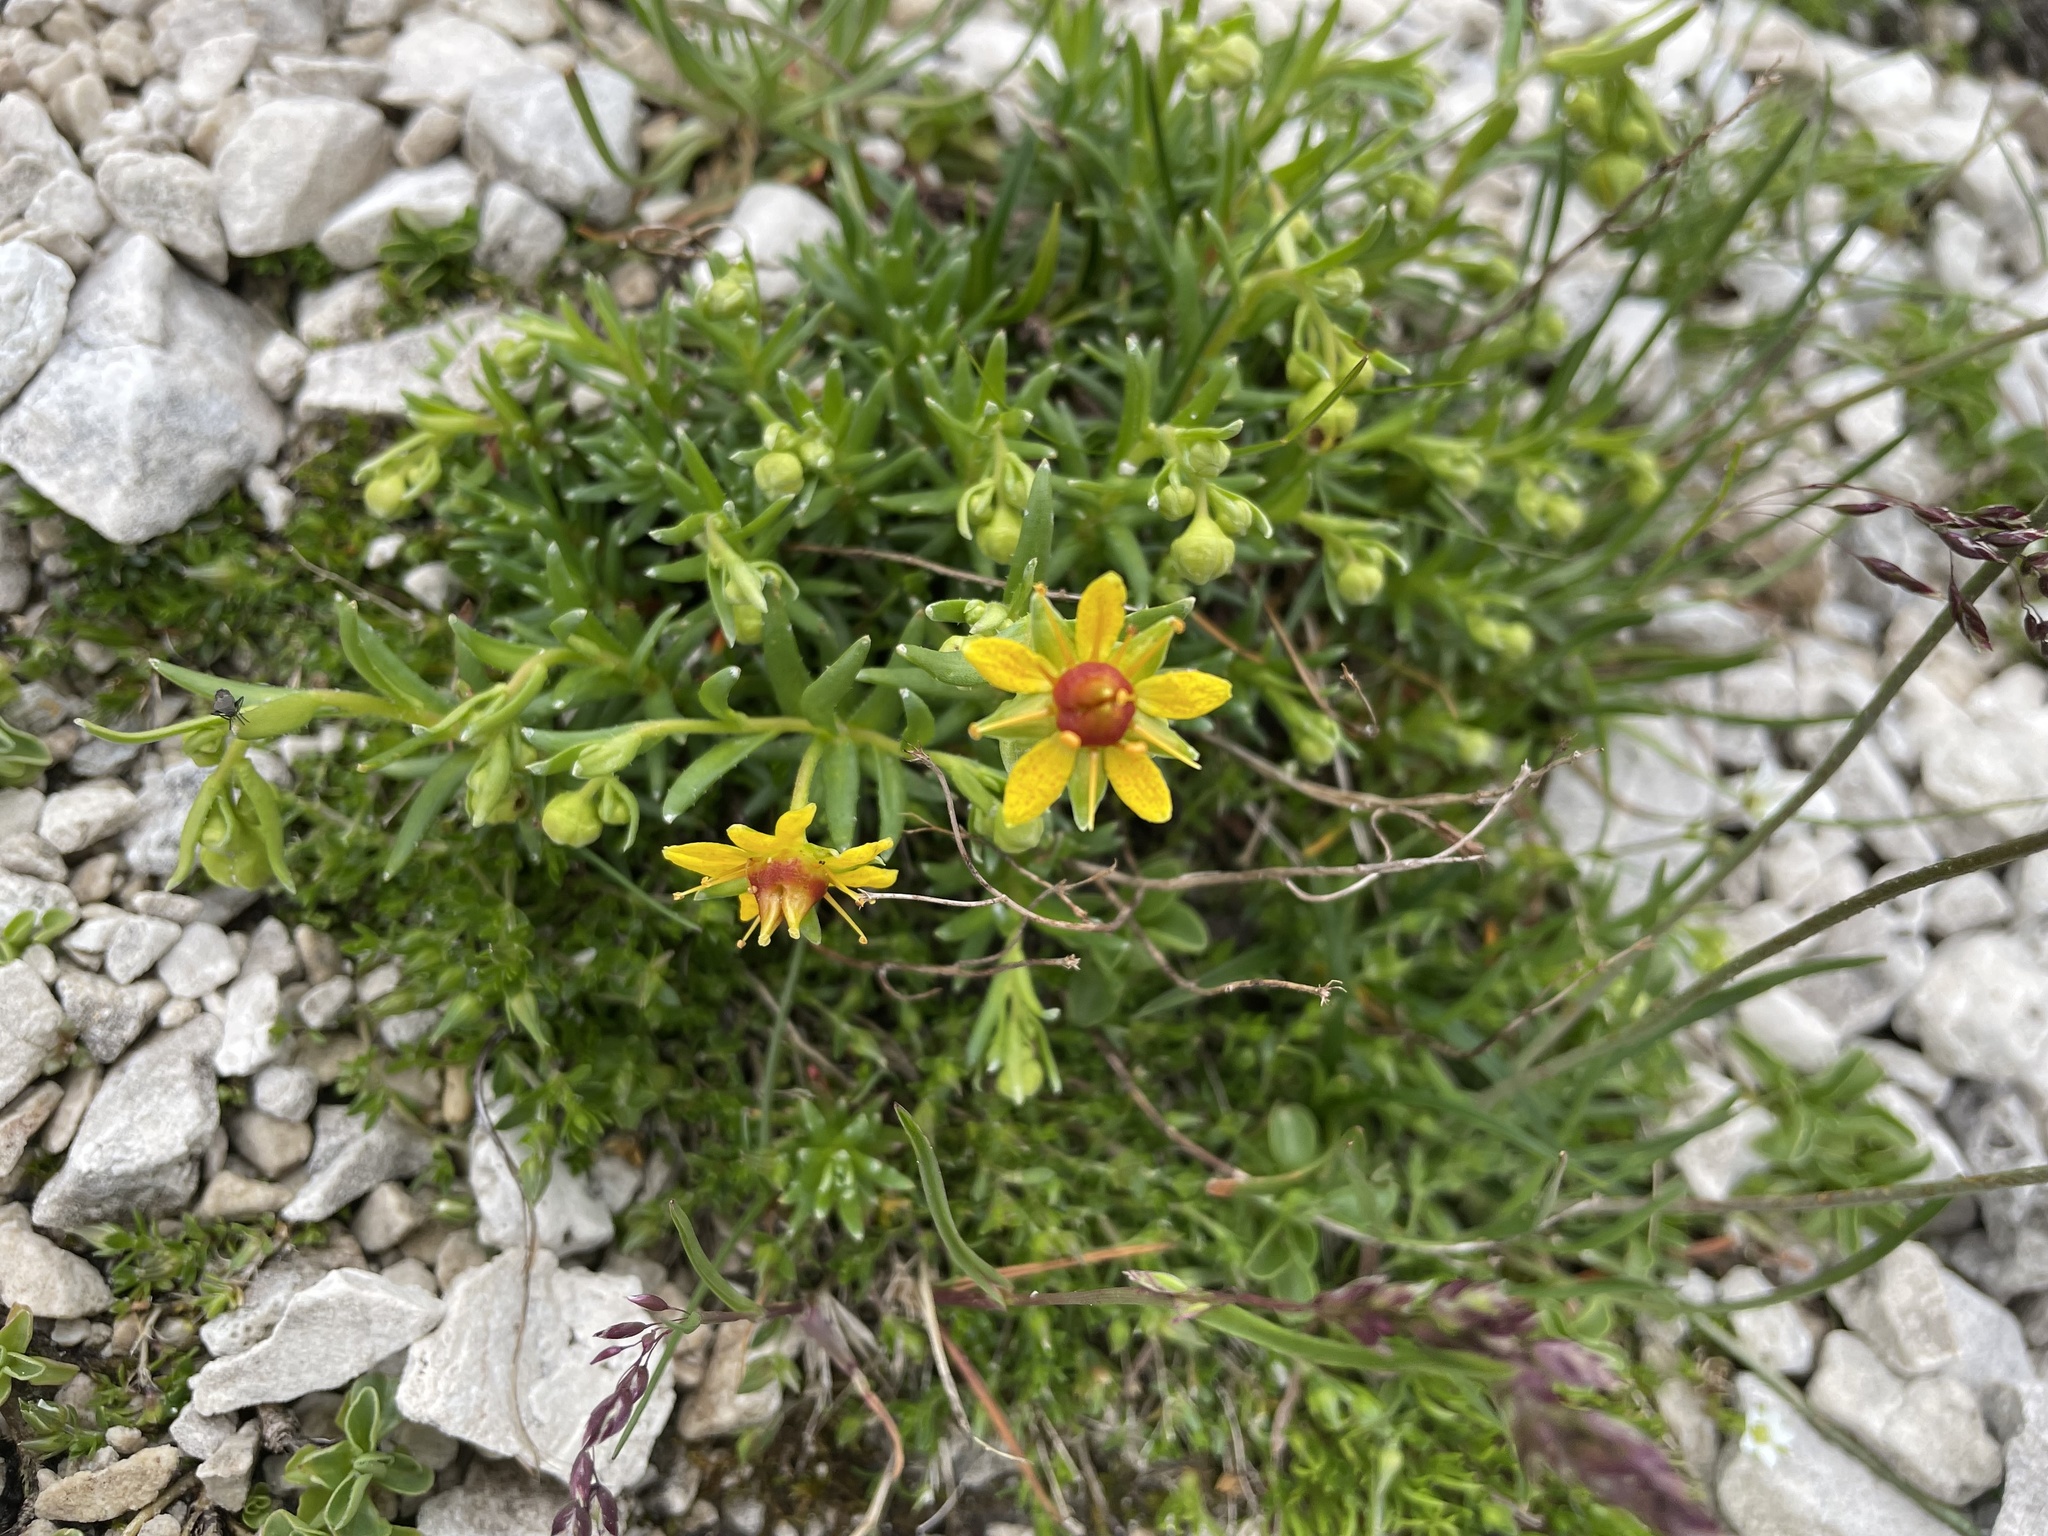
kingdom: Plantae
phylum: Tracheophyta
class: Magnoliopsida
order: Saxifragales
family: Saxifragaceae
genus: Saxifraga
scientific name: Saxifraga aizoides
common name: Yellow mountain saxifrage
